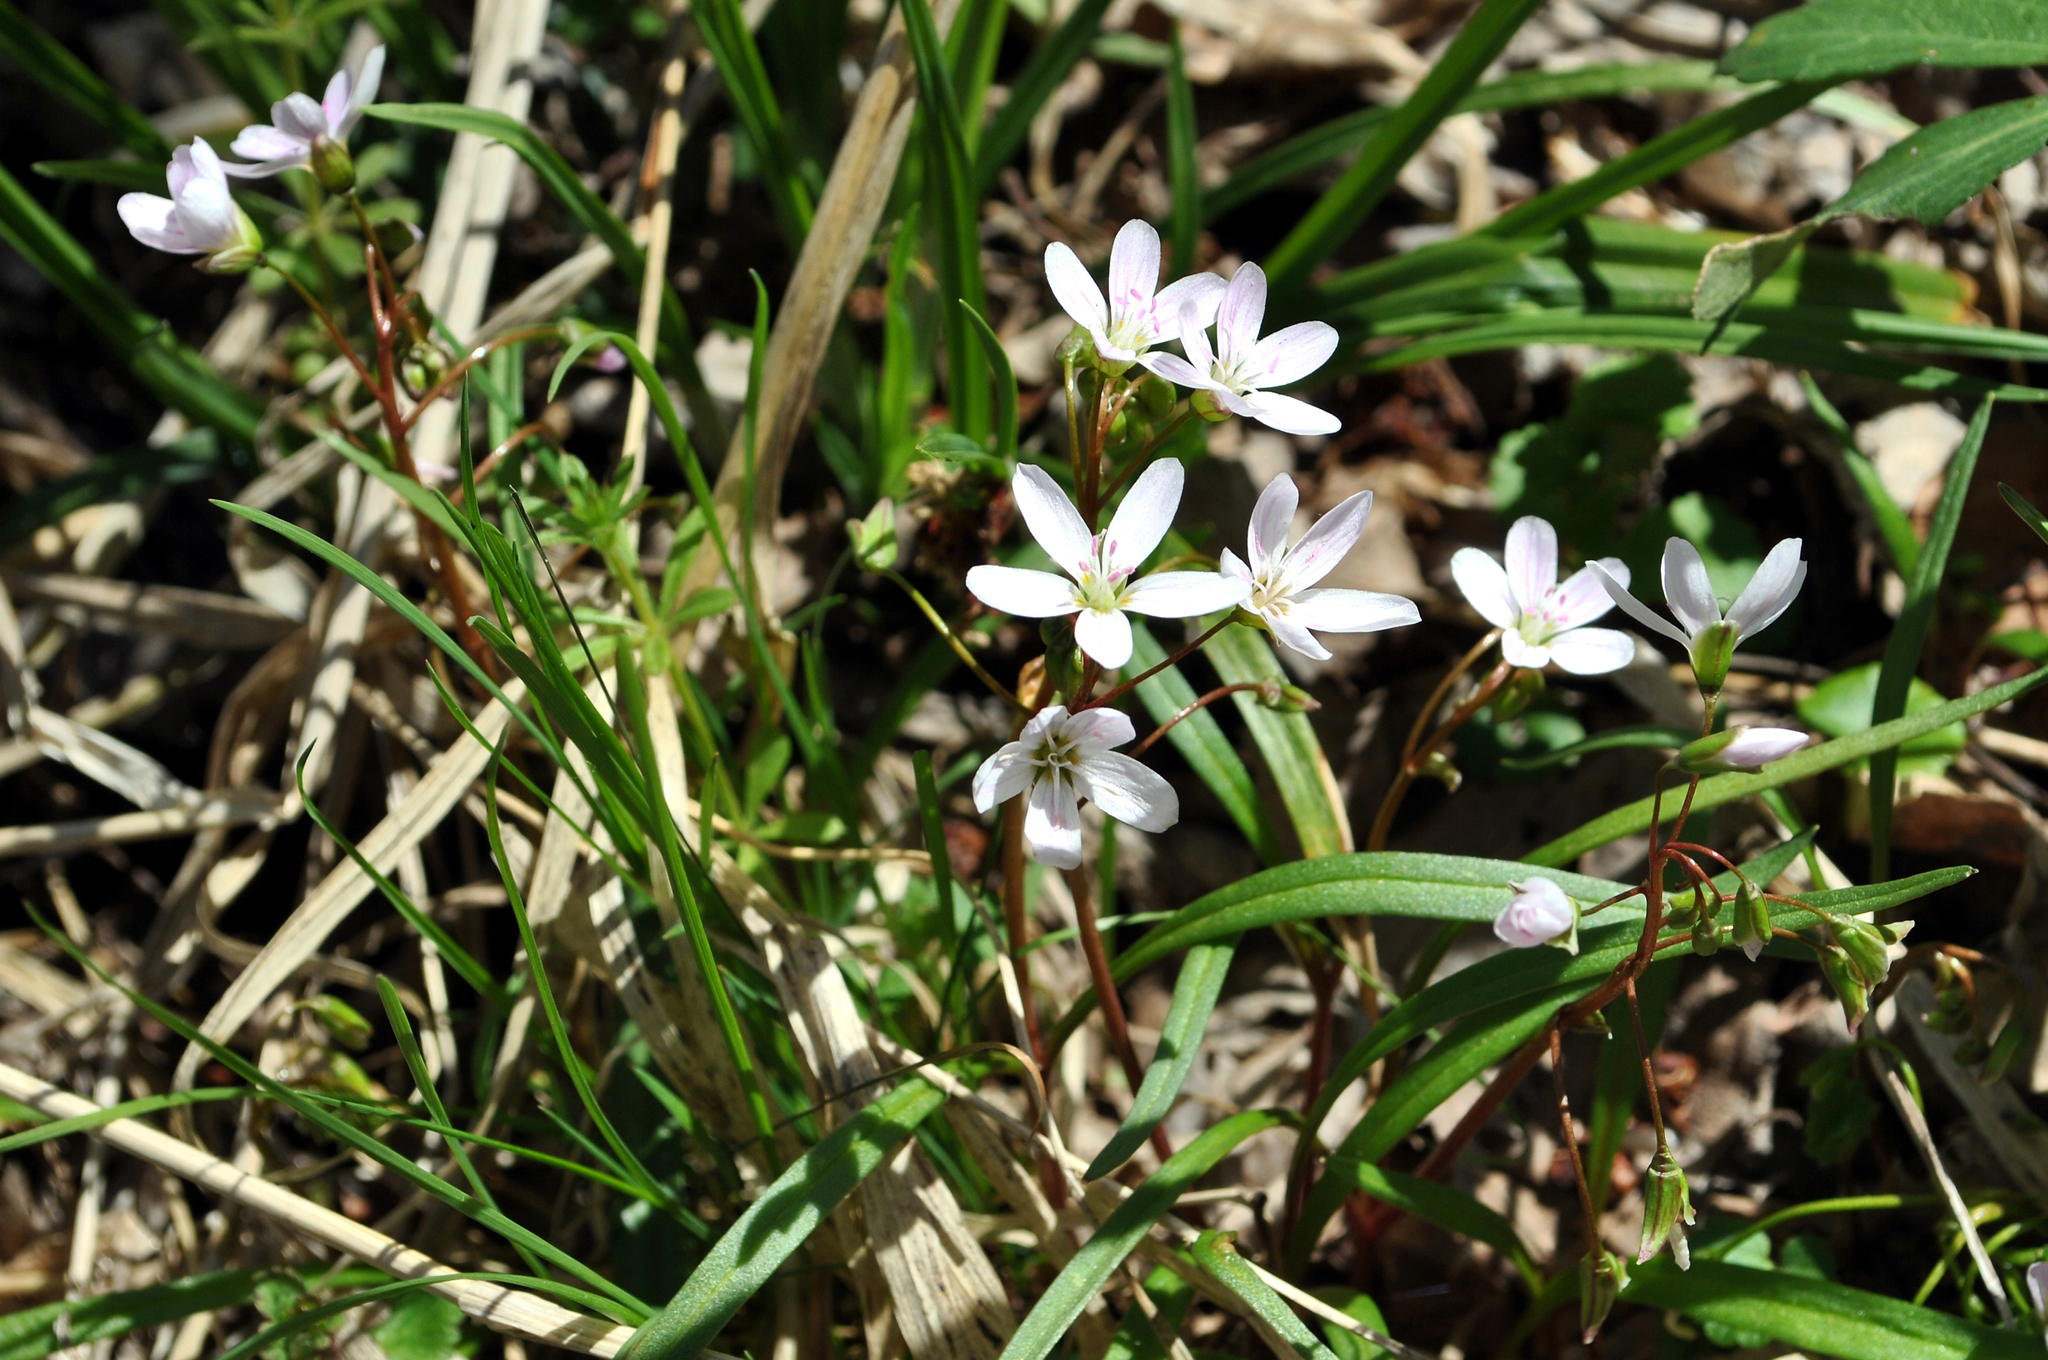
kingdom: Plantae
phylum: Tracheophyta
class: Magnoliopsida
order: Caryophyllales
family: Montiaceae
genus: Claytonia
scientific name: Claytonia virginica
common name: Virginia springbeauty
